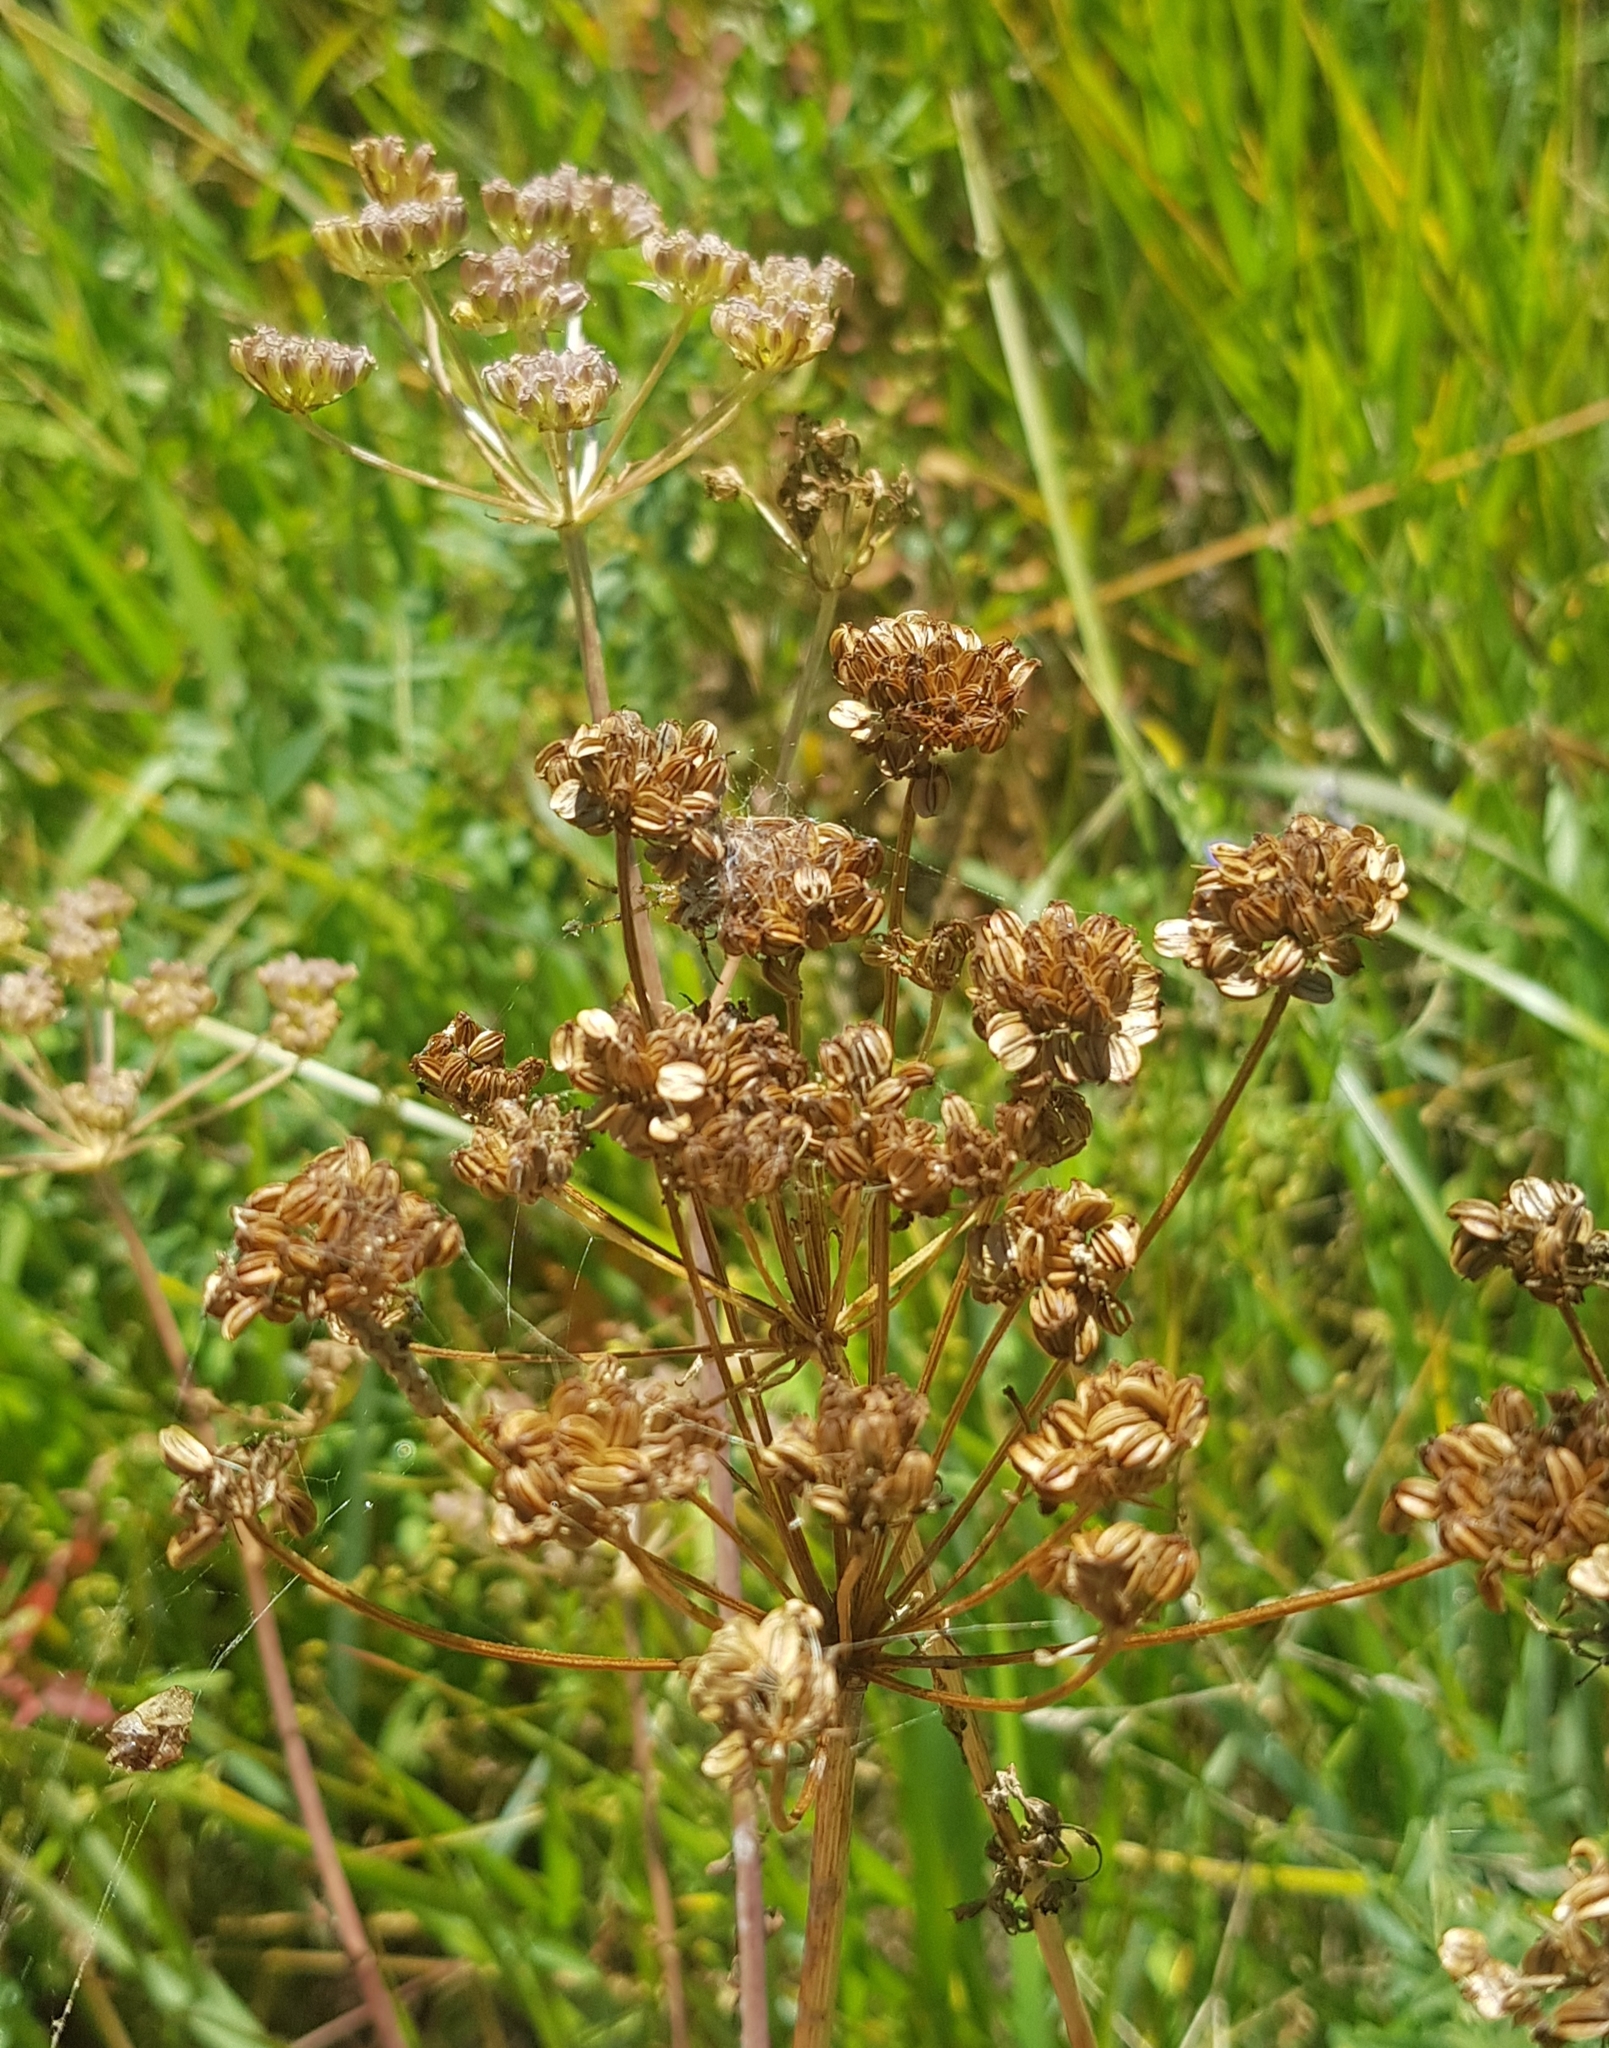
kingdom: Plantae
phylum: Tracheophyta
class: Magnoliopsida
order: Apiales
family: Apiaceae
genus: Cicuta
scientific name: Cicuta virosa
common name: Cowbane
